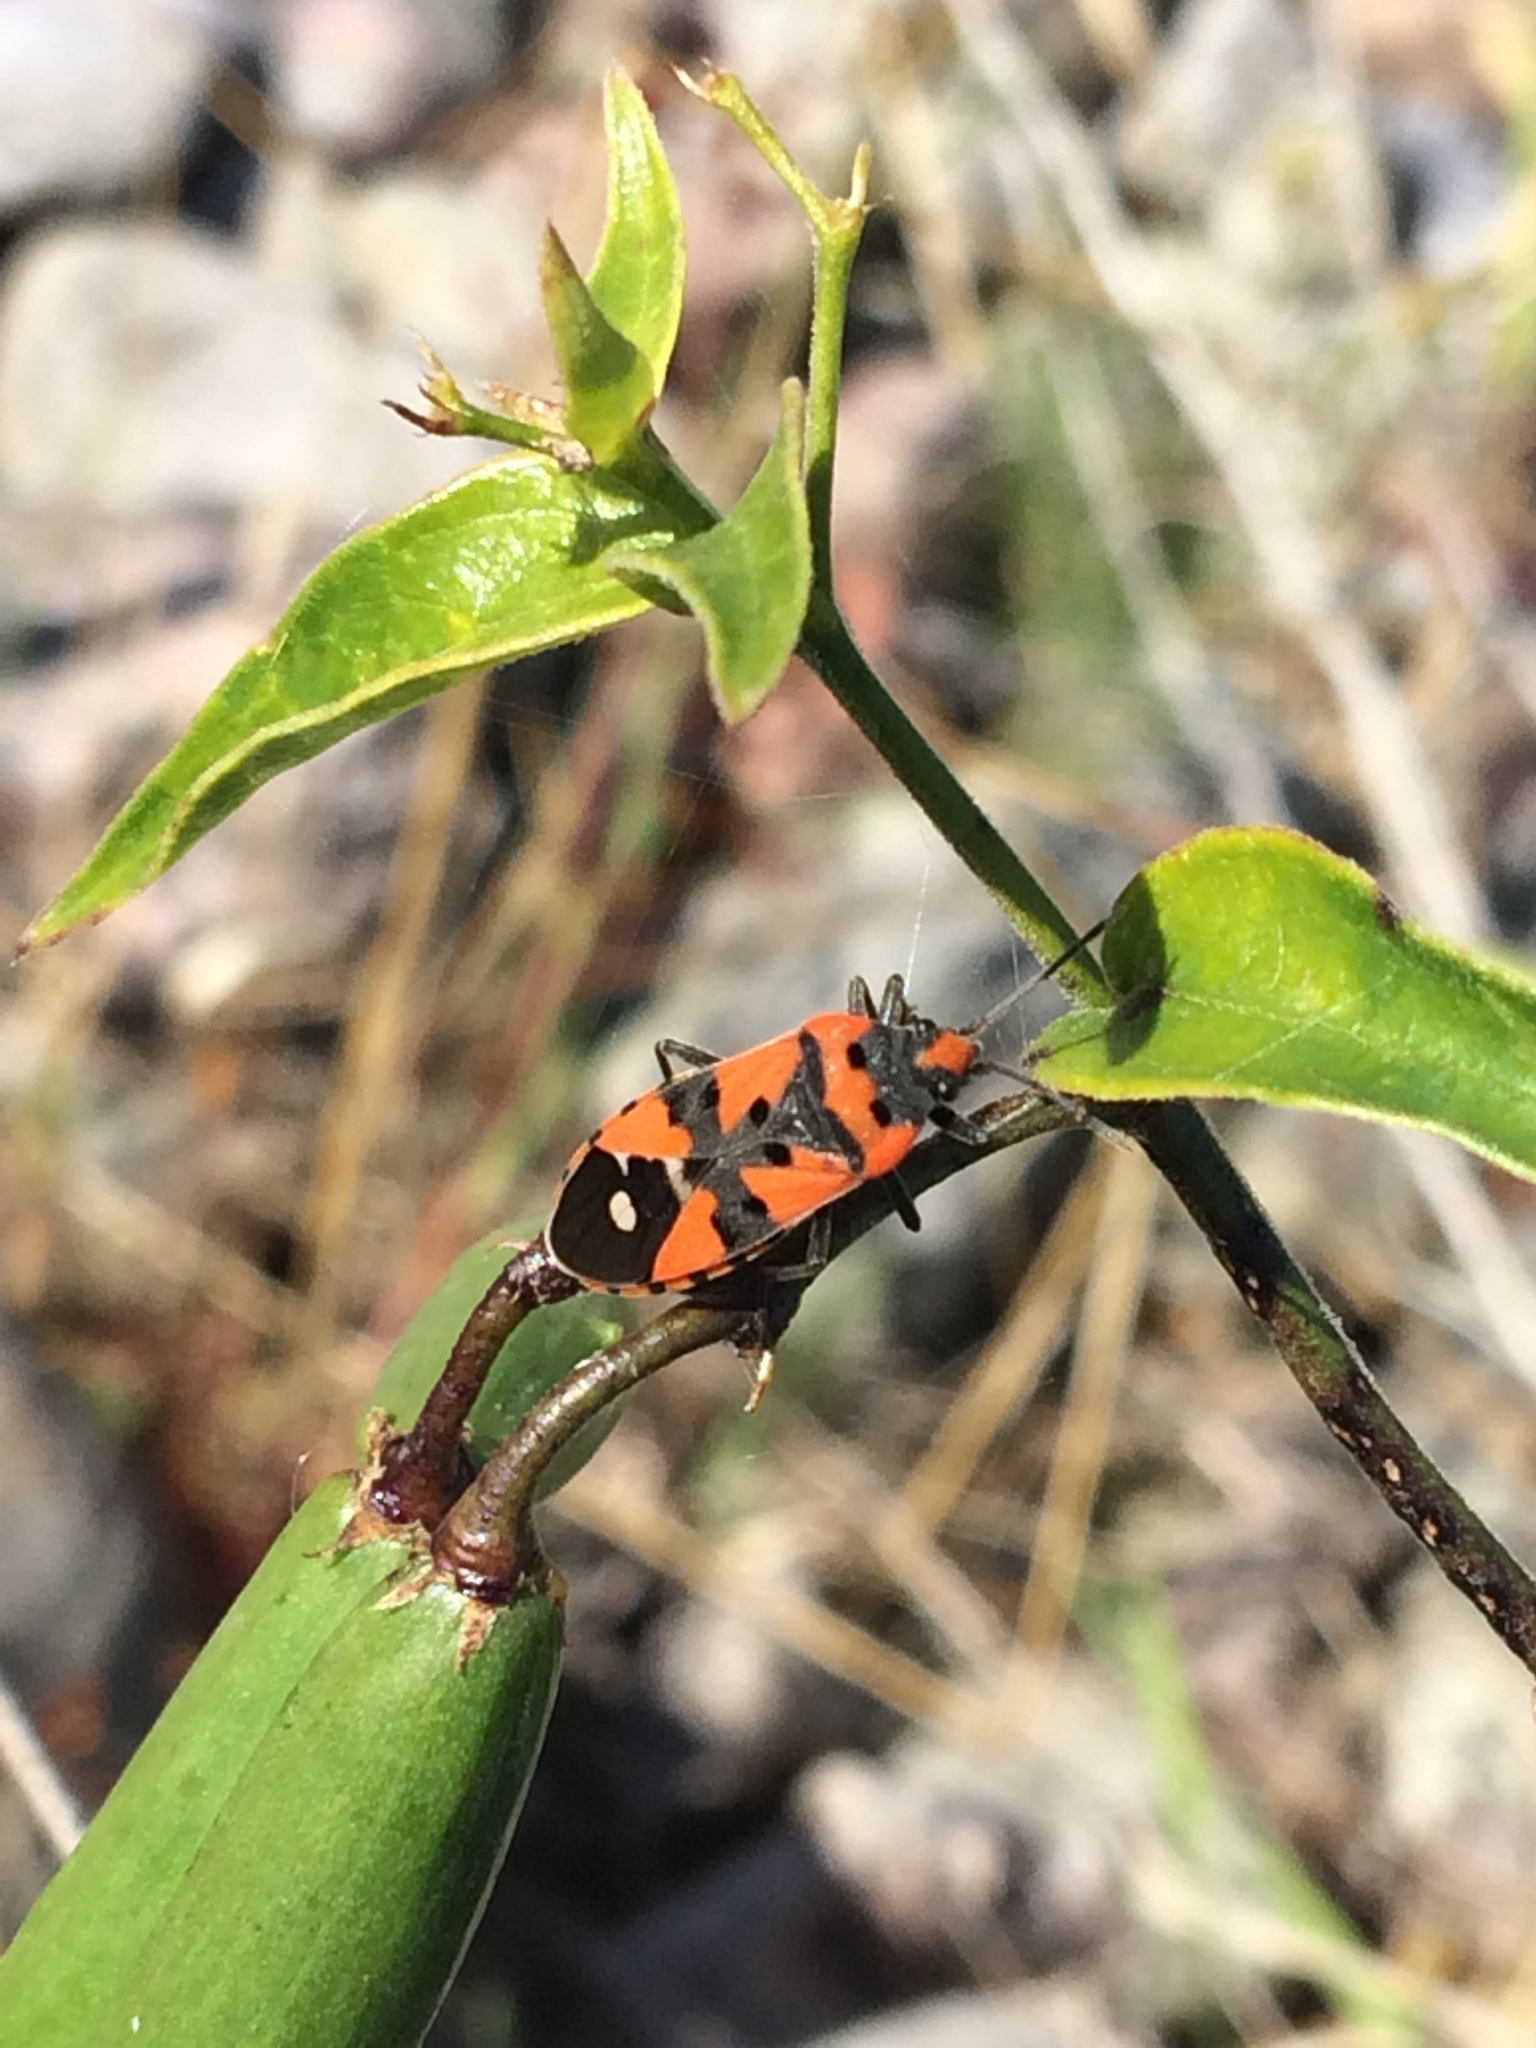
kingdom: Animalia
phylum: Arthropoda
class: Insecta
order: Hemiptera
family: Lygaeidae
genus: Lygaeus
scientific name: Lygaeus equestris
